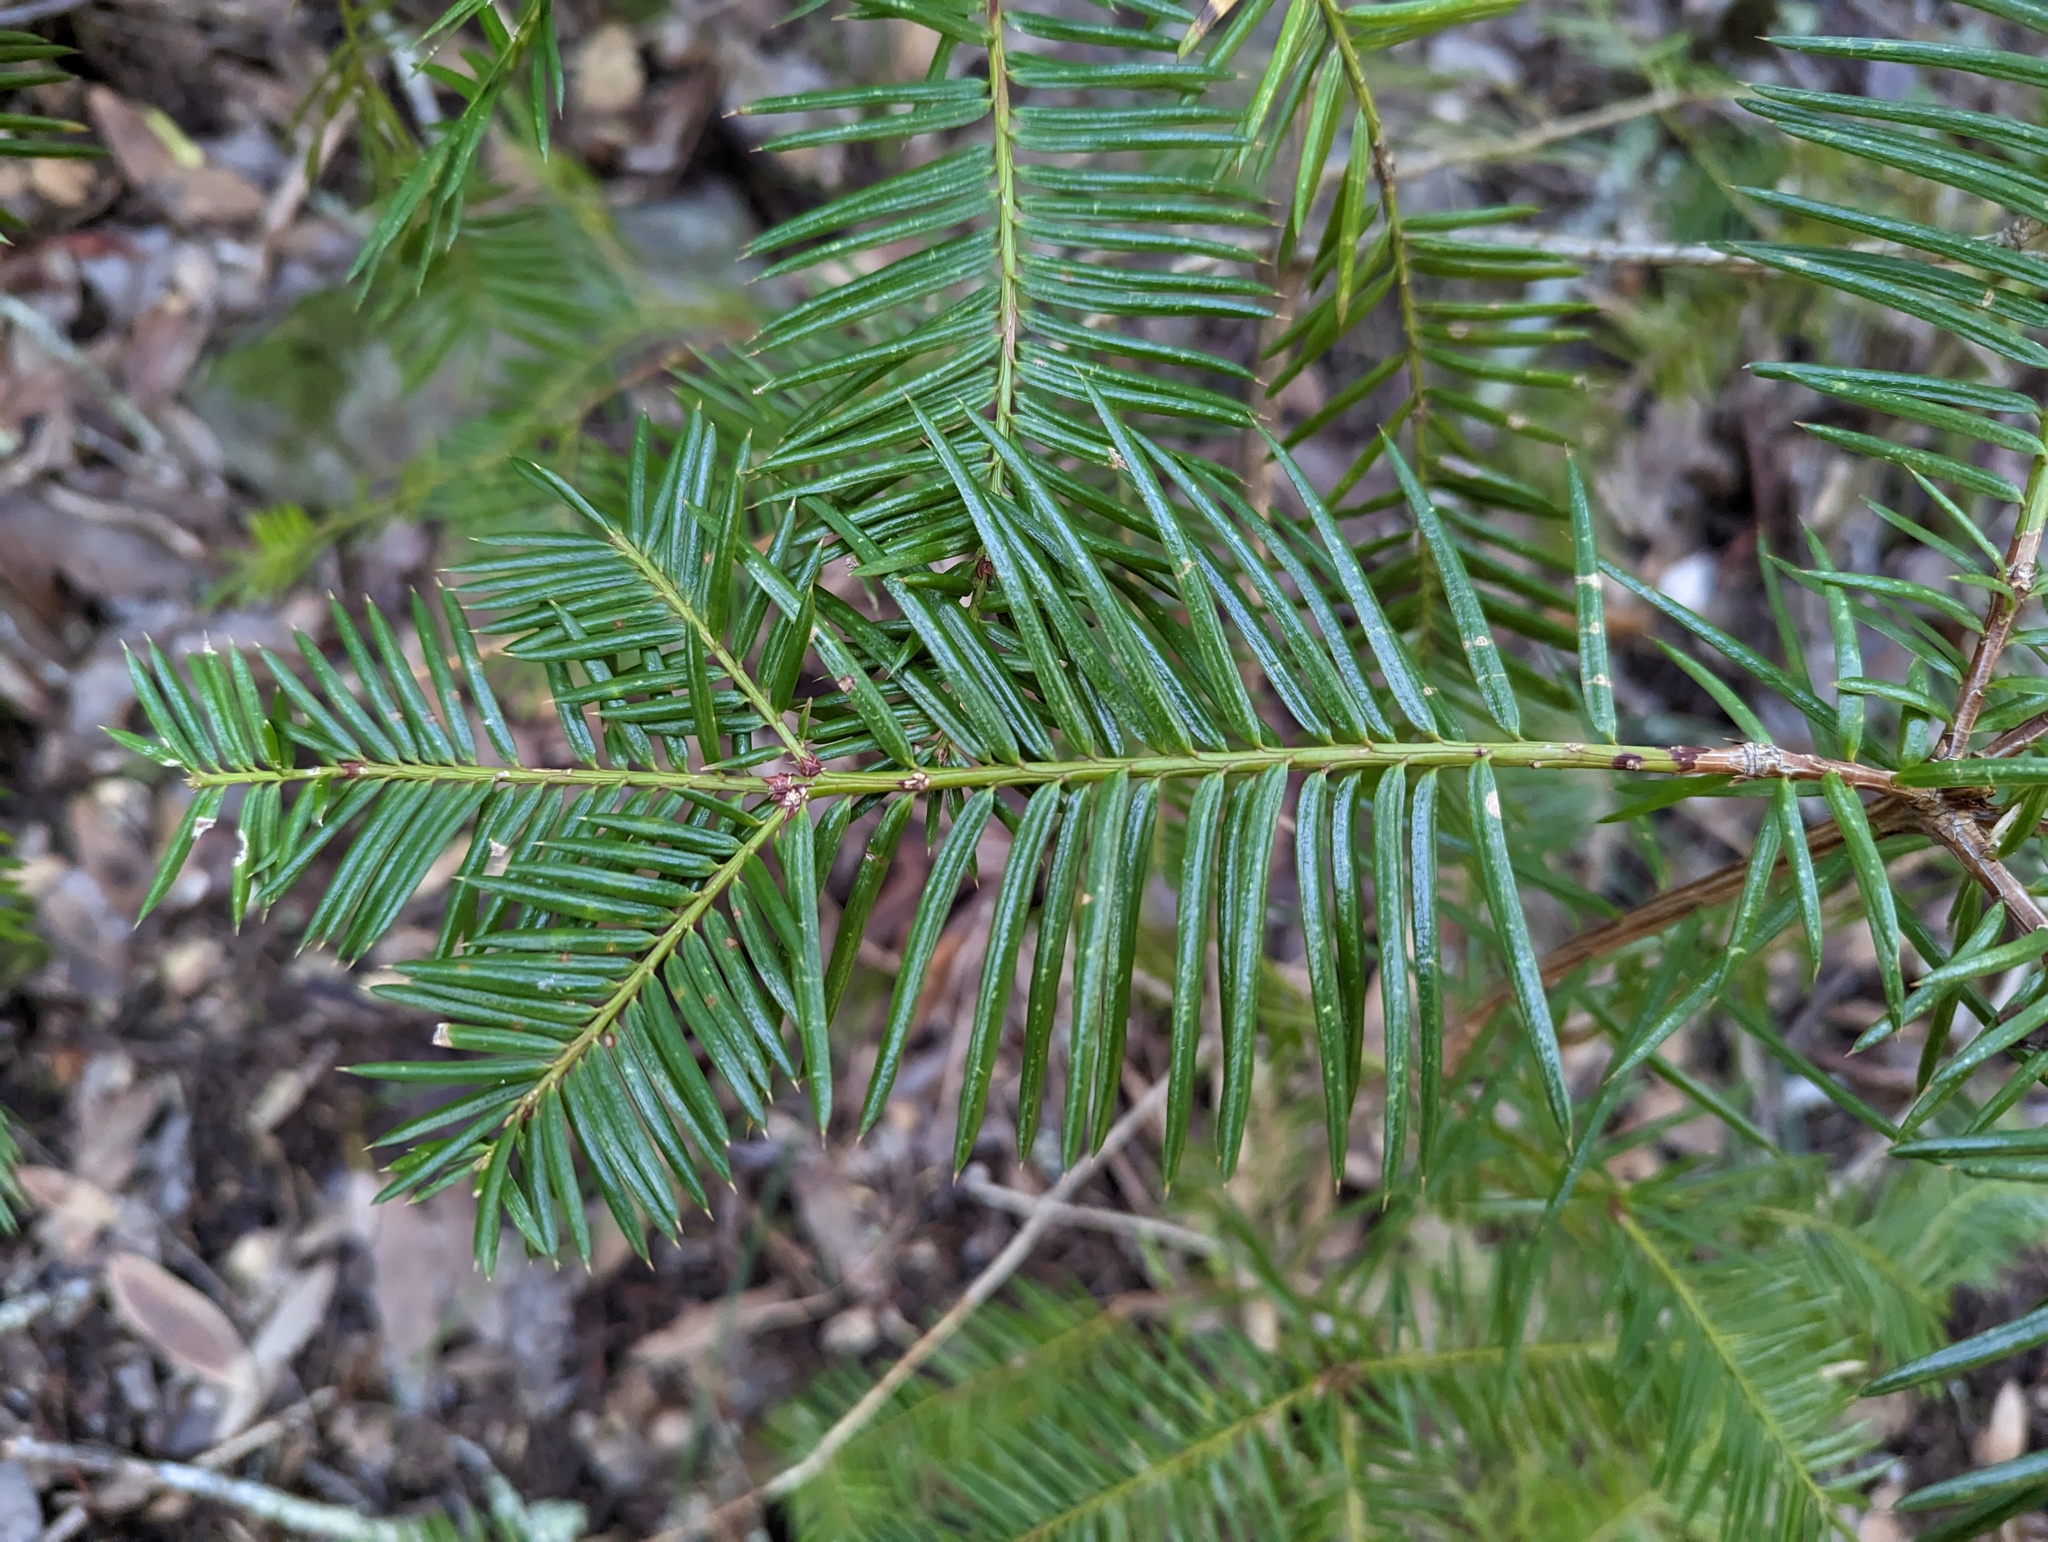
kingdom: Plantae
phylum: Tracheophyta
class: Pinopsida
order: Pinales
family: Taxaceae
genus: Torreya
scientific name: Torreya californica
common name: California torreya
